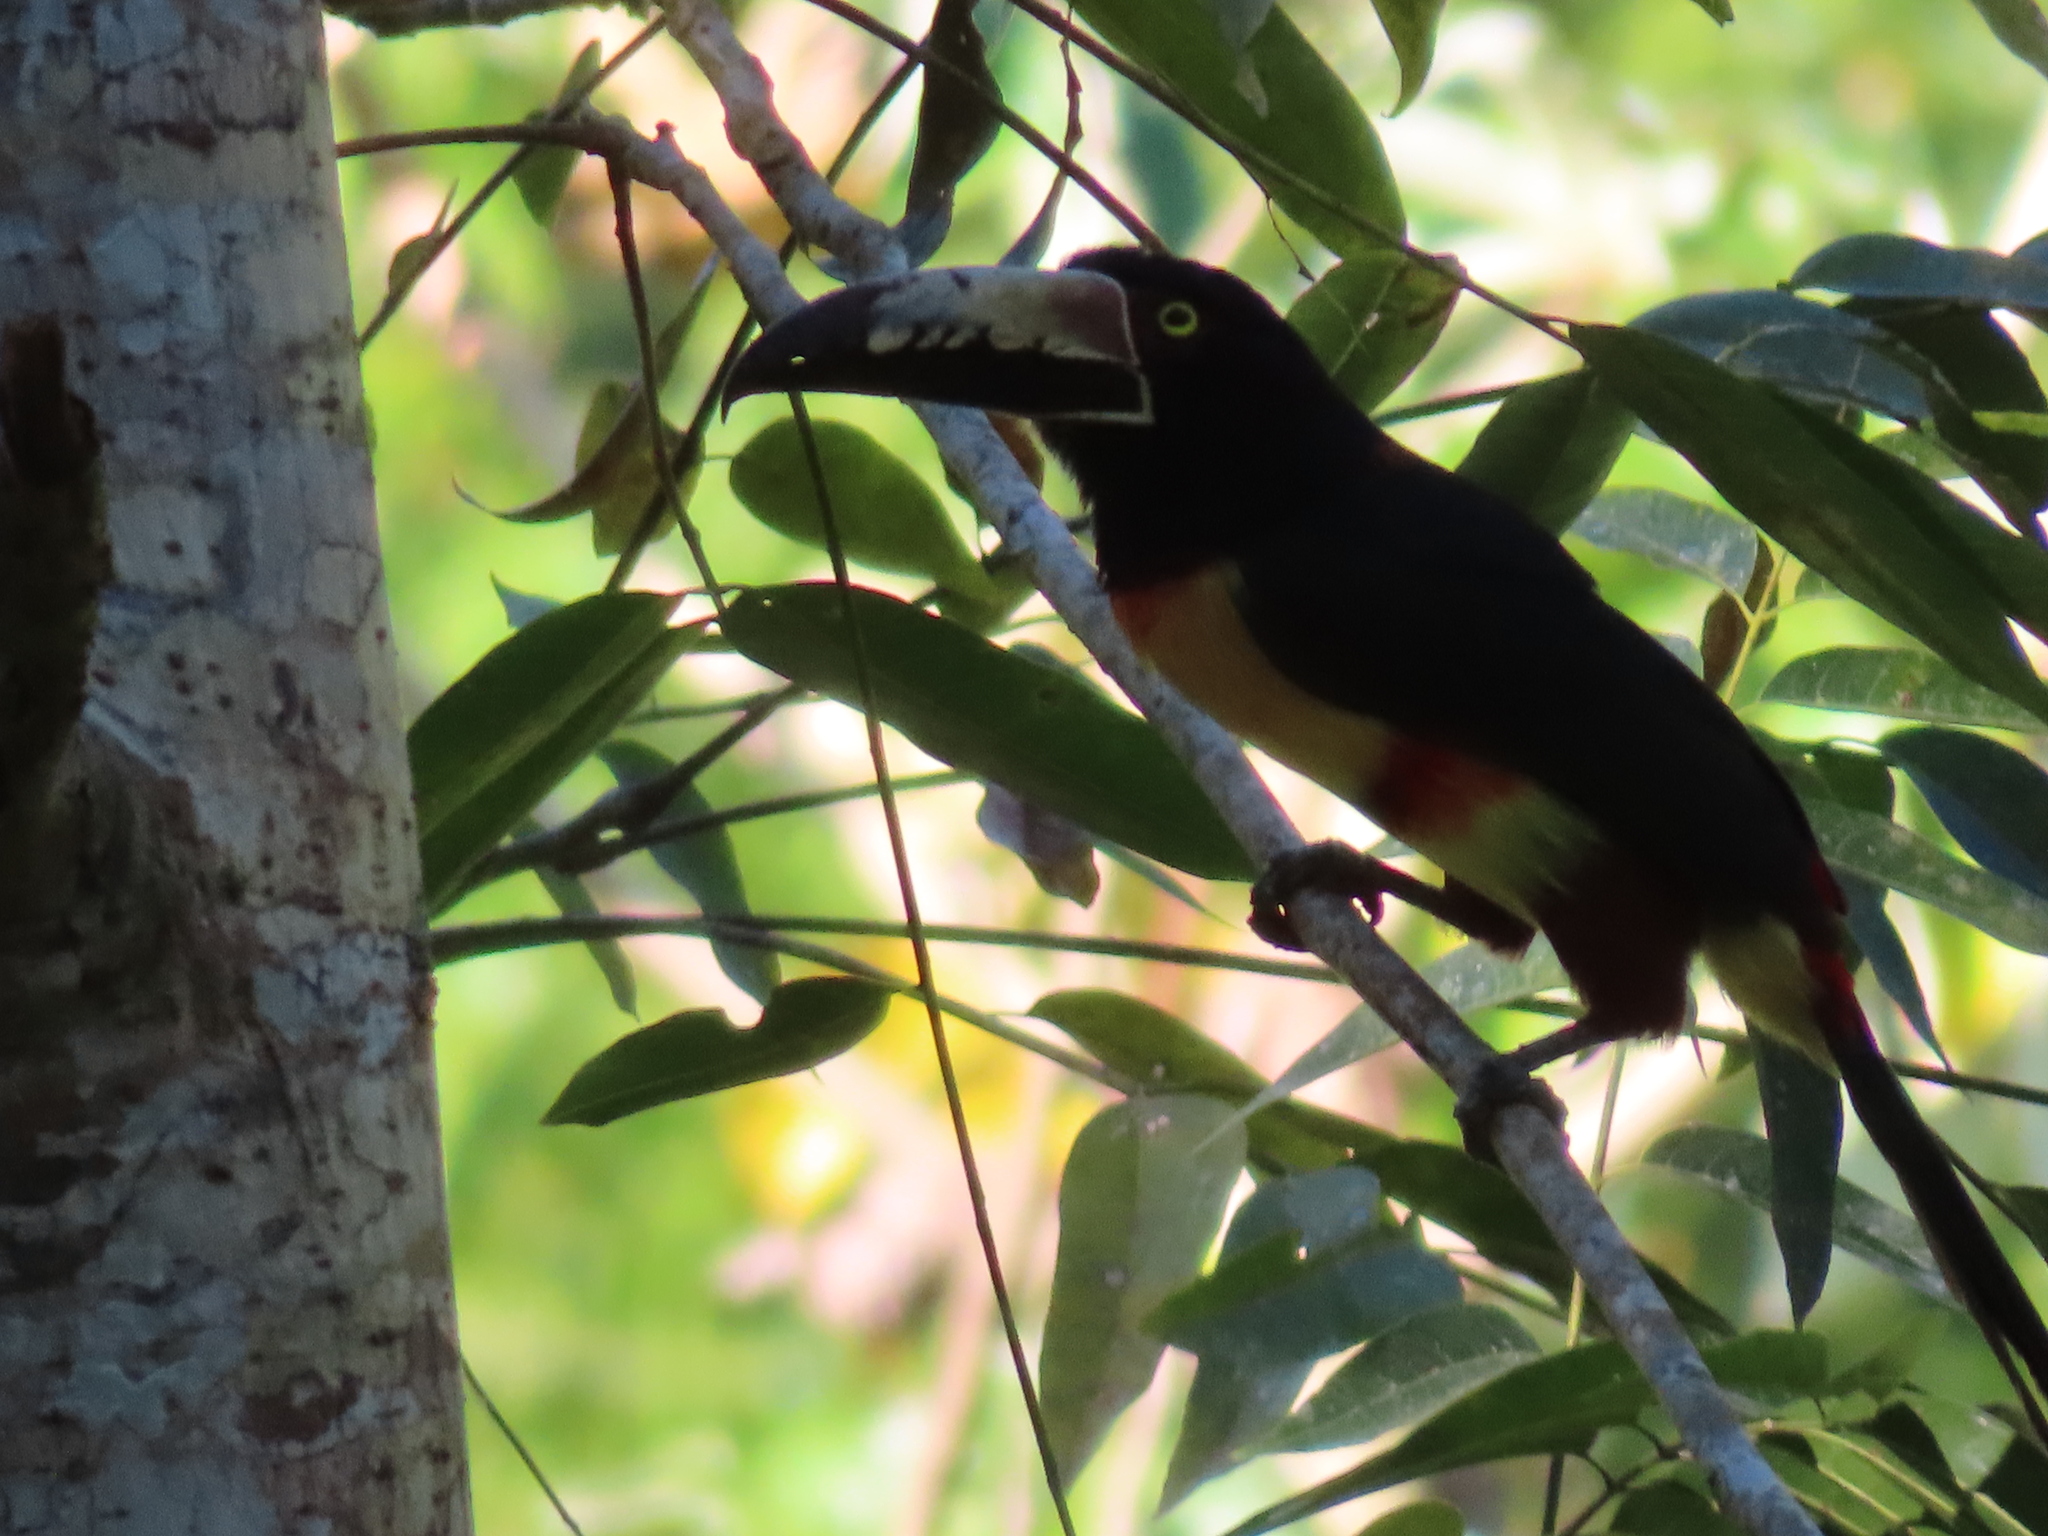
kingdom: Animalia
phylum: Chordata
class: Aves
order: Piciformes
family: Ramphastidae
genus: Pteroglossus
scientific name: Pteroglossus torquatus
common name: Collared aracari
